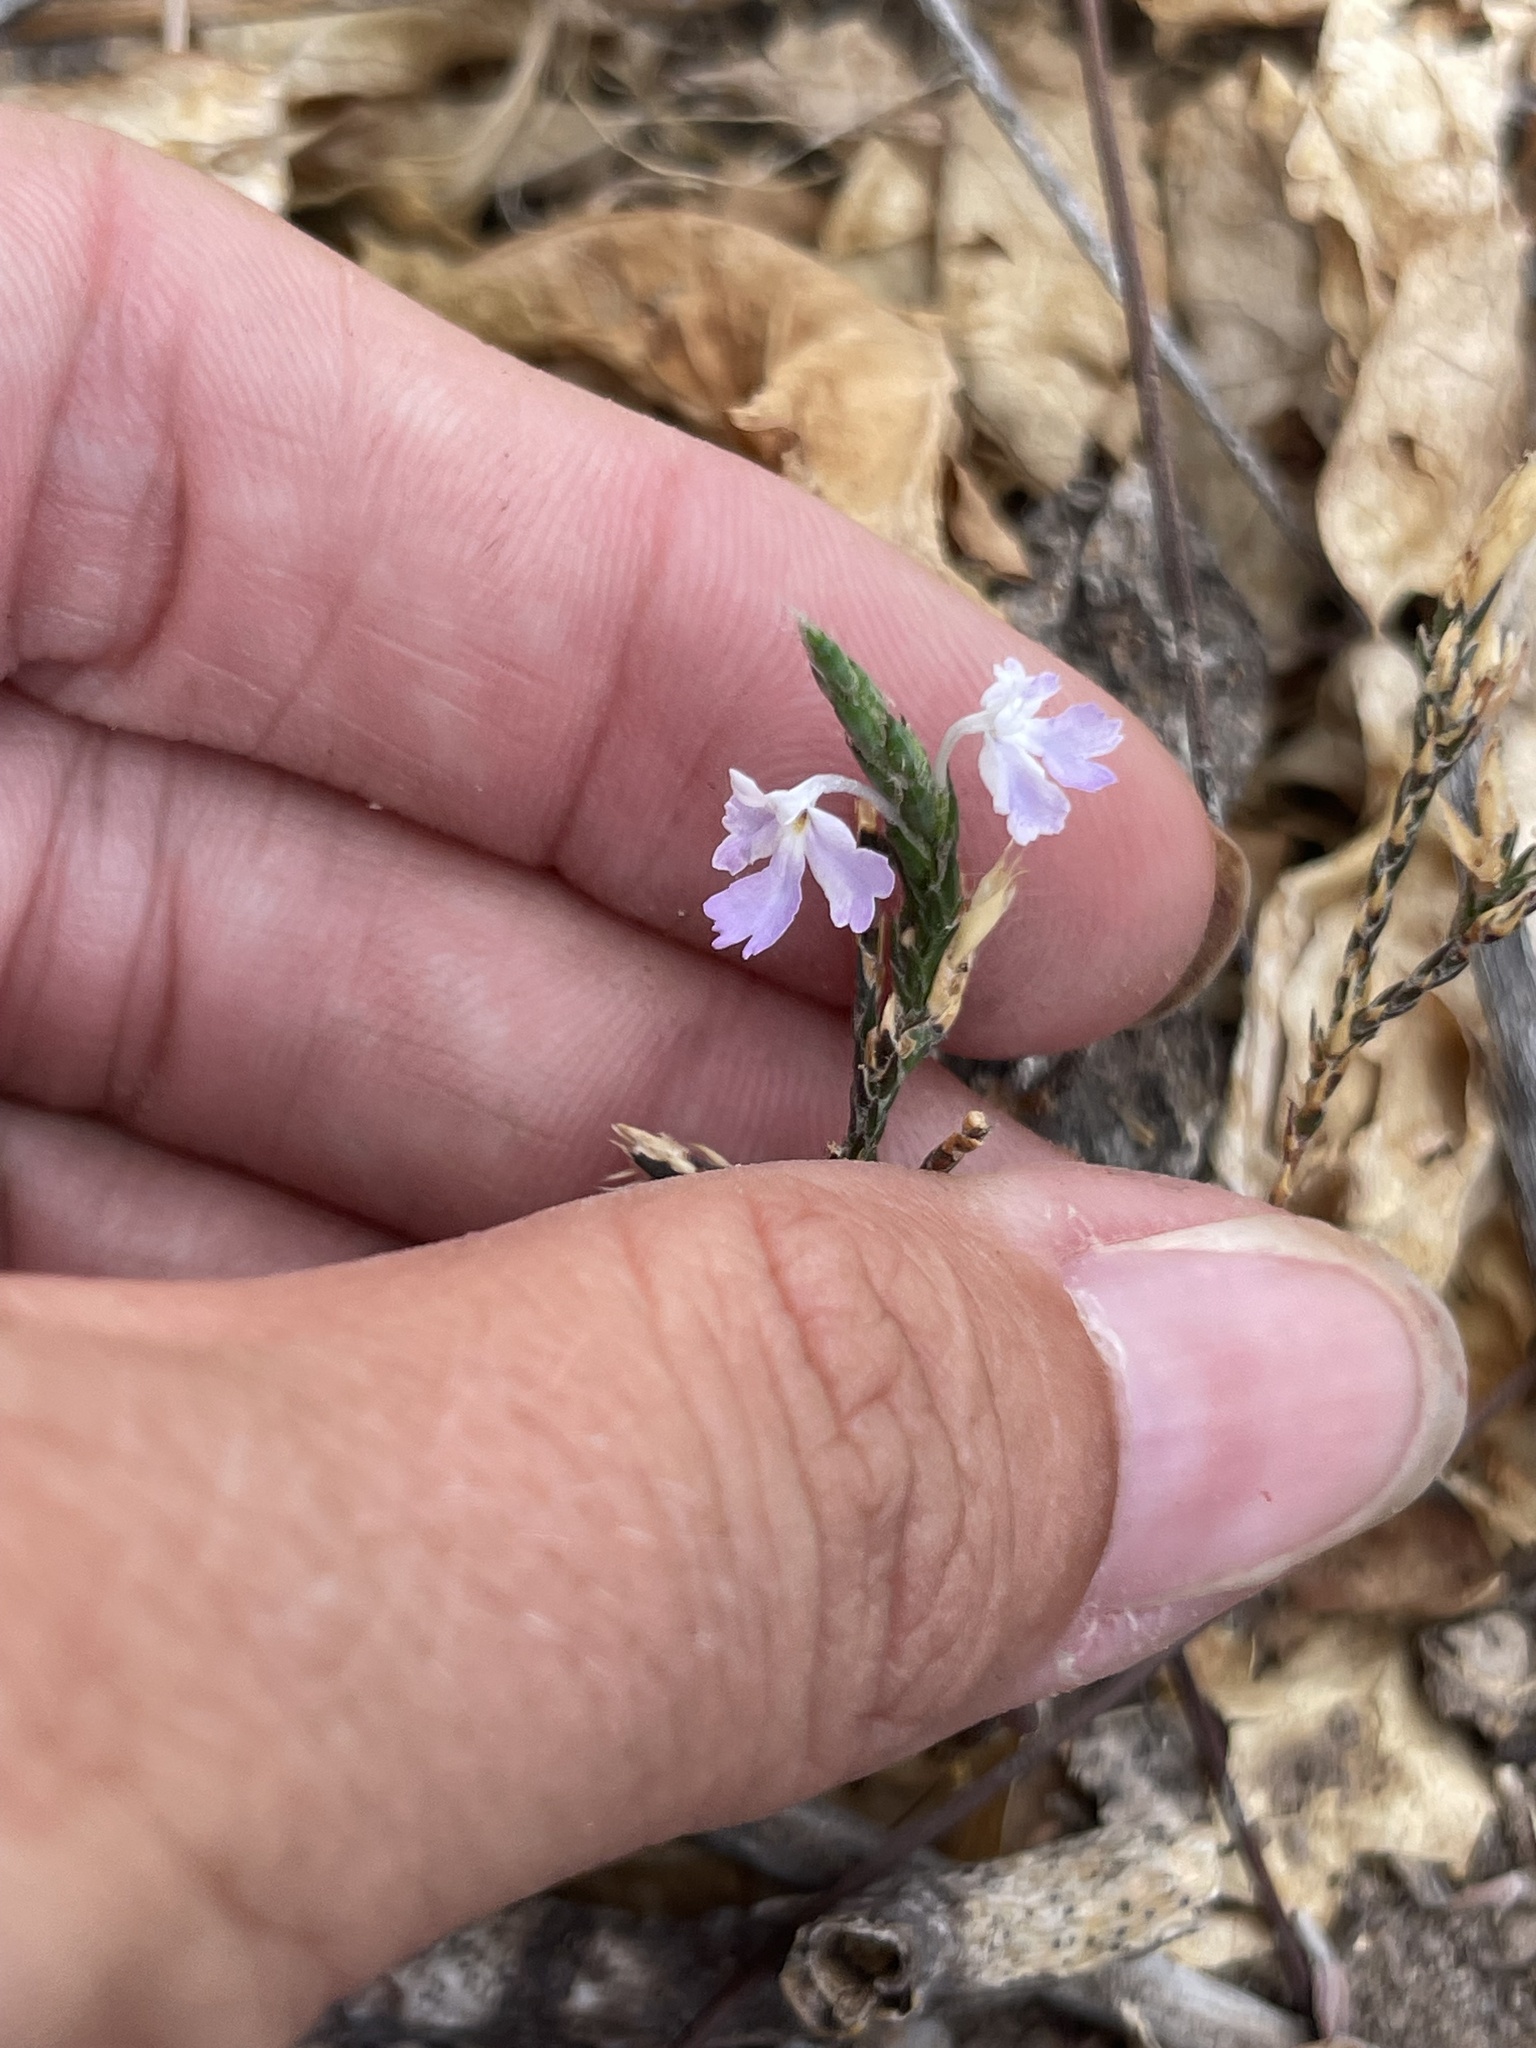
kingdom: Plantae
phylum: Tracheophyta
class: Magnoliopsida
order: Lamiales
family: Acanthaceae
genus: Elytraria
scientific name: Elytraria imbricata
